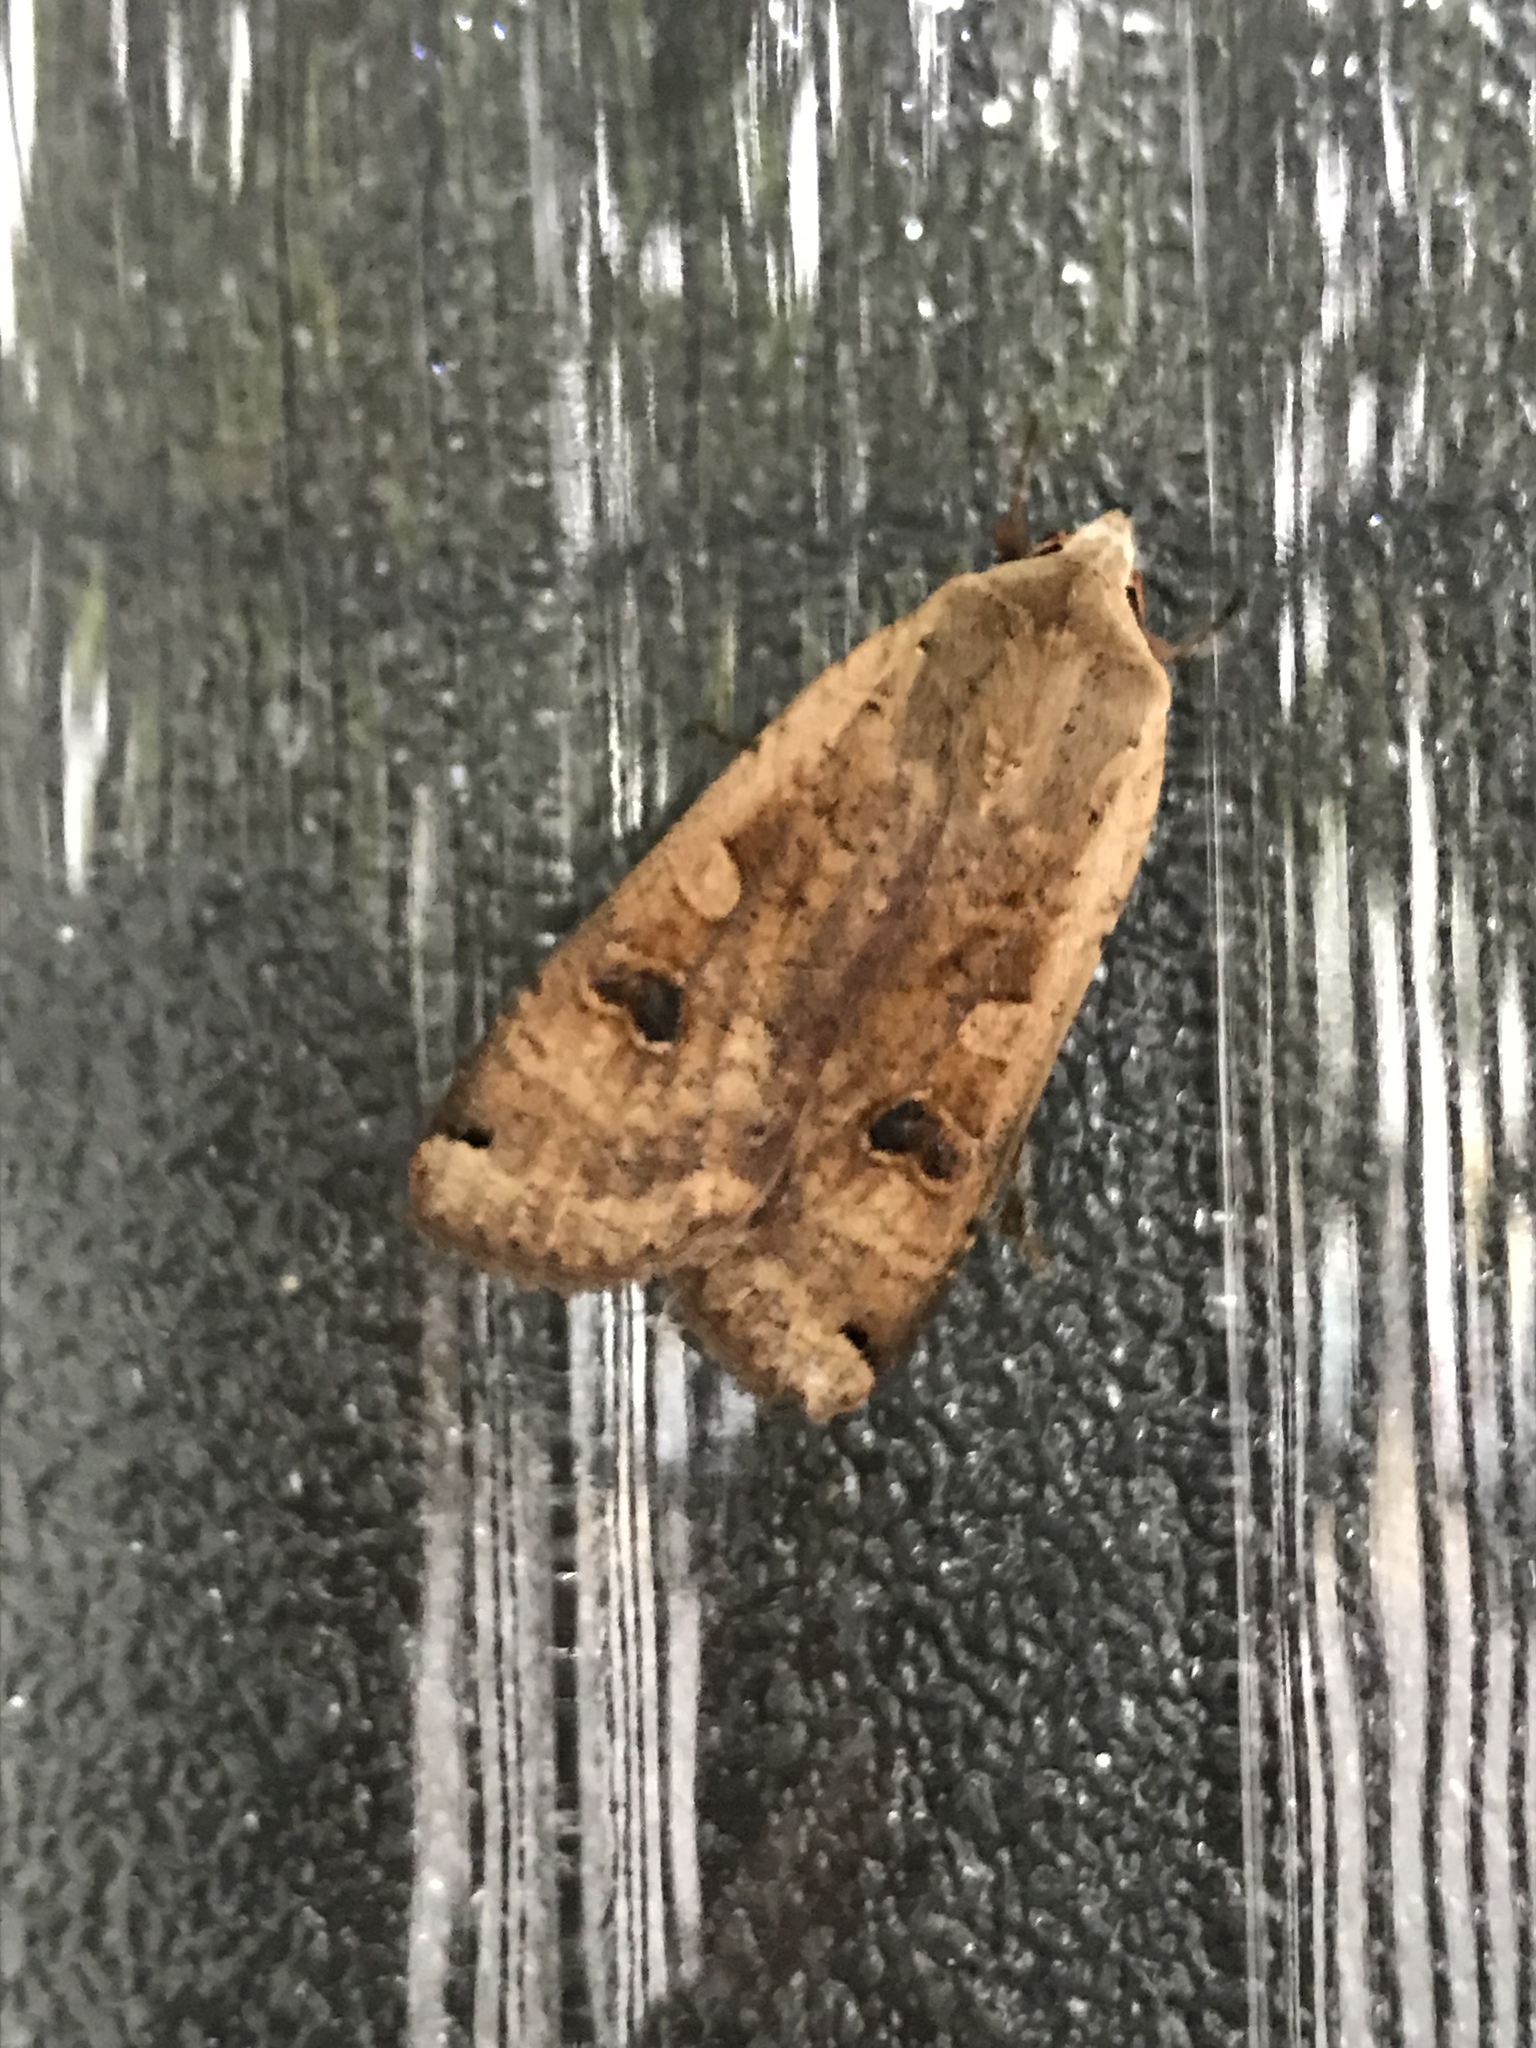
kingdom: Animalia
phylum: Arthropoda
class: Insecta
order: Lepidoptera
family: Noctuidae
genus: Noctua
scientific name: Noctua pronuba
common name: Large yellow underwing
